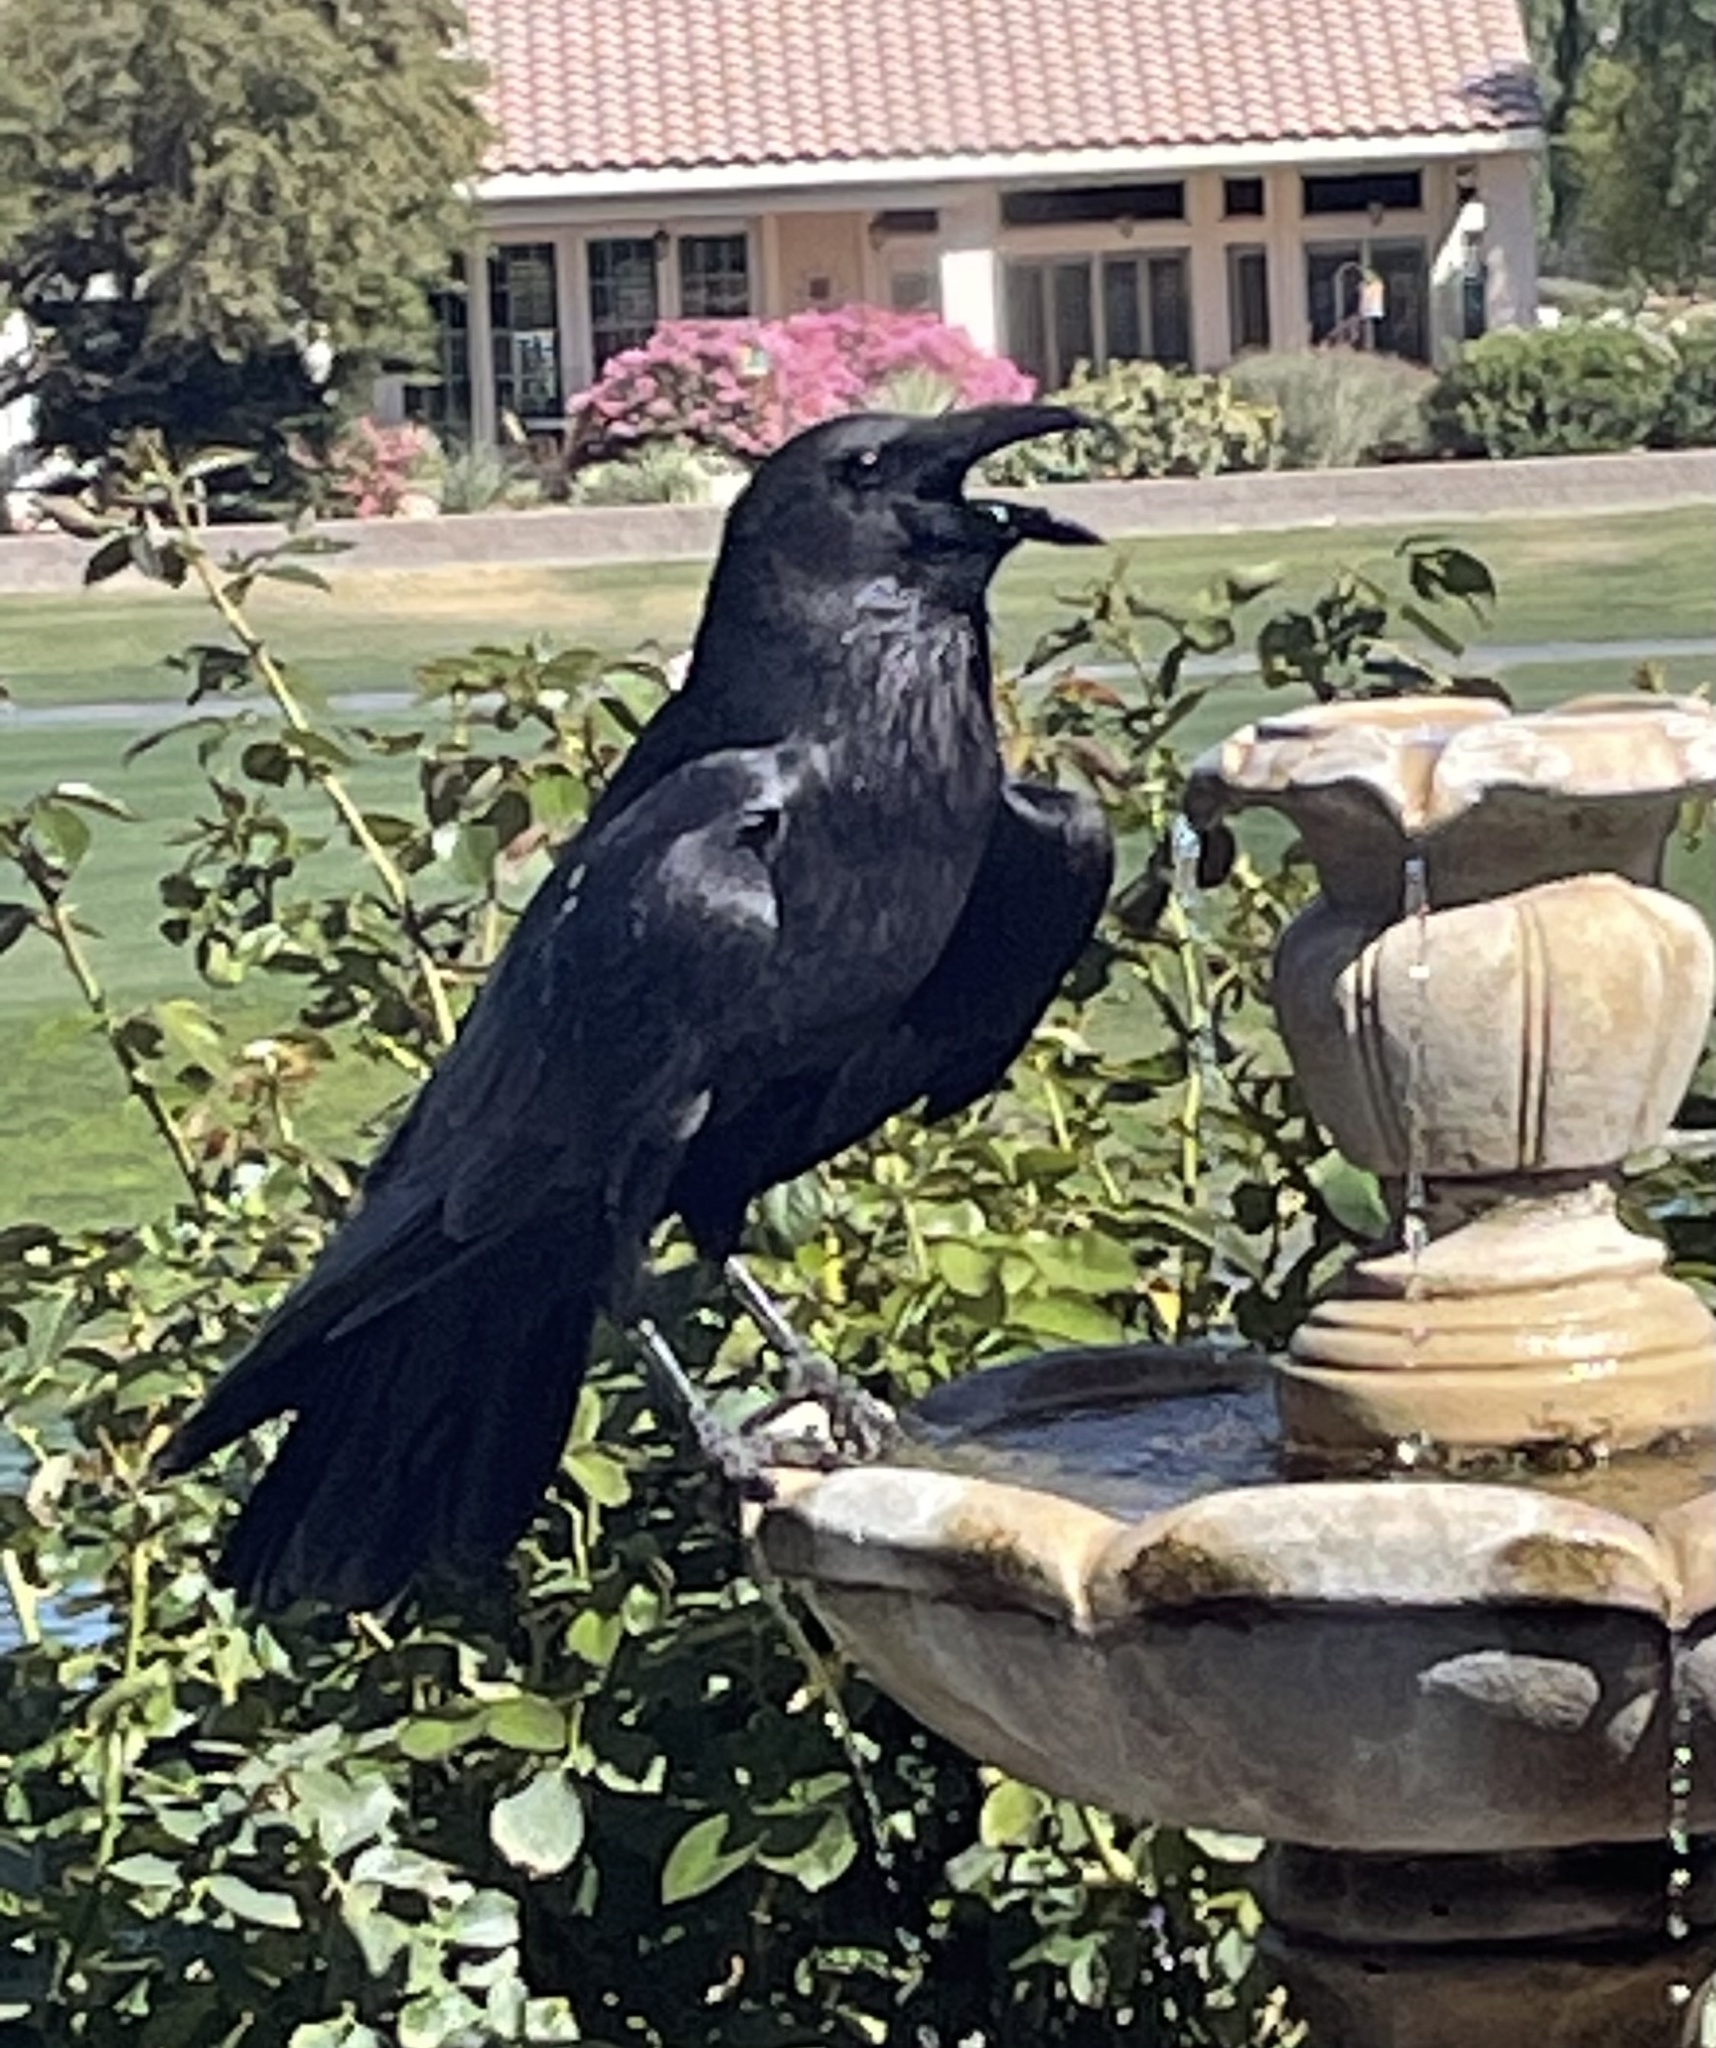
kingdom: Animalia
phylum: Chordata
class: Aves
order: Passeriformes
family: Corvidae
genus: Corvus
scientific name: Corvus corax
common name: Common raven
